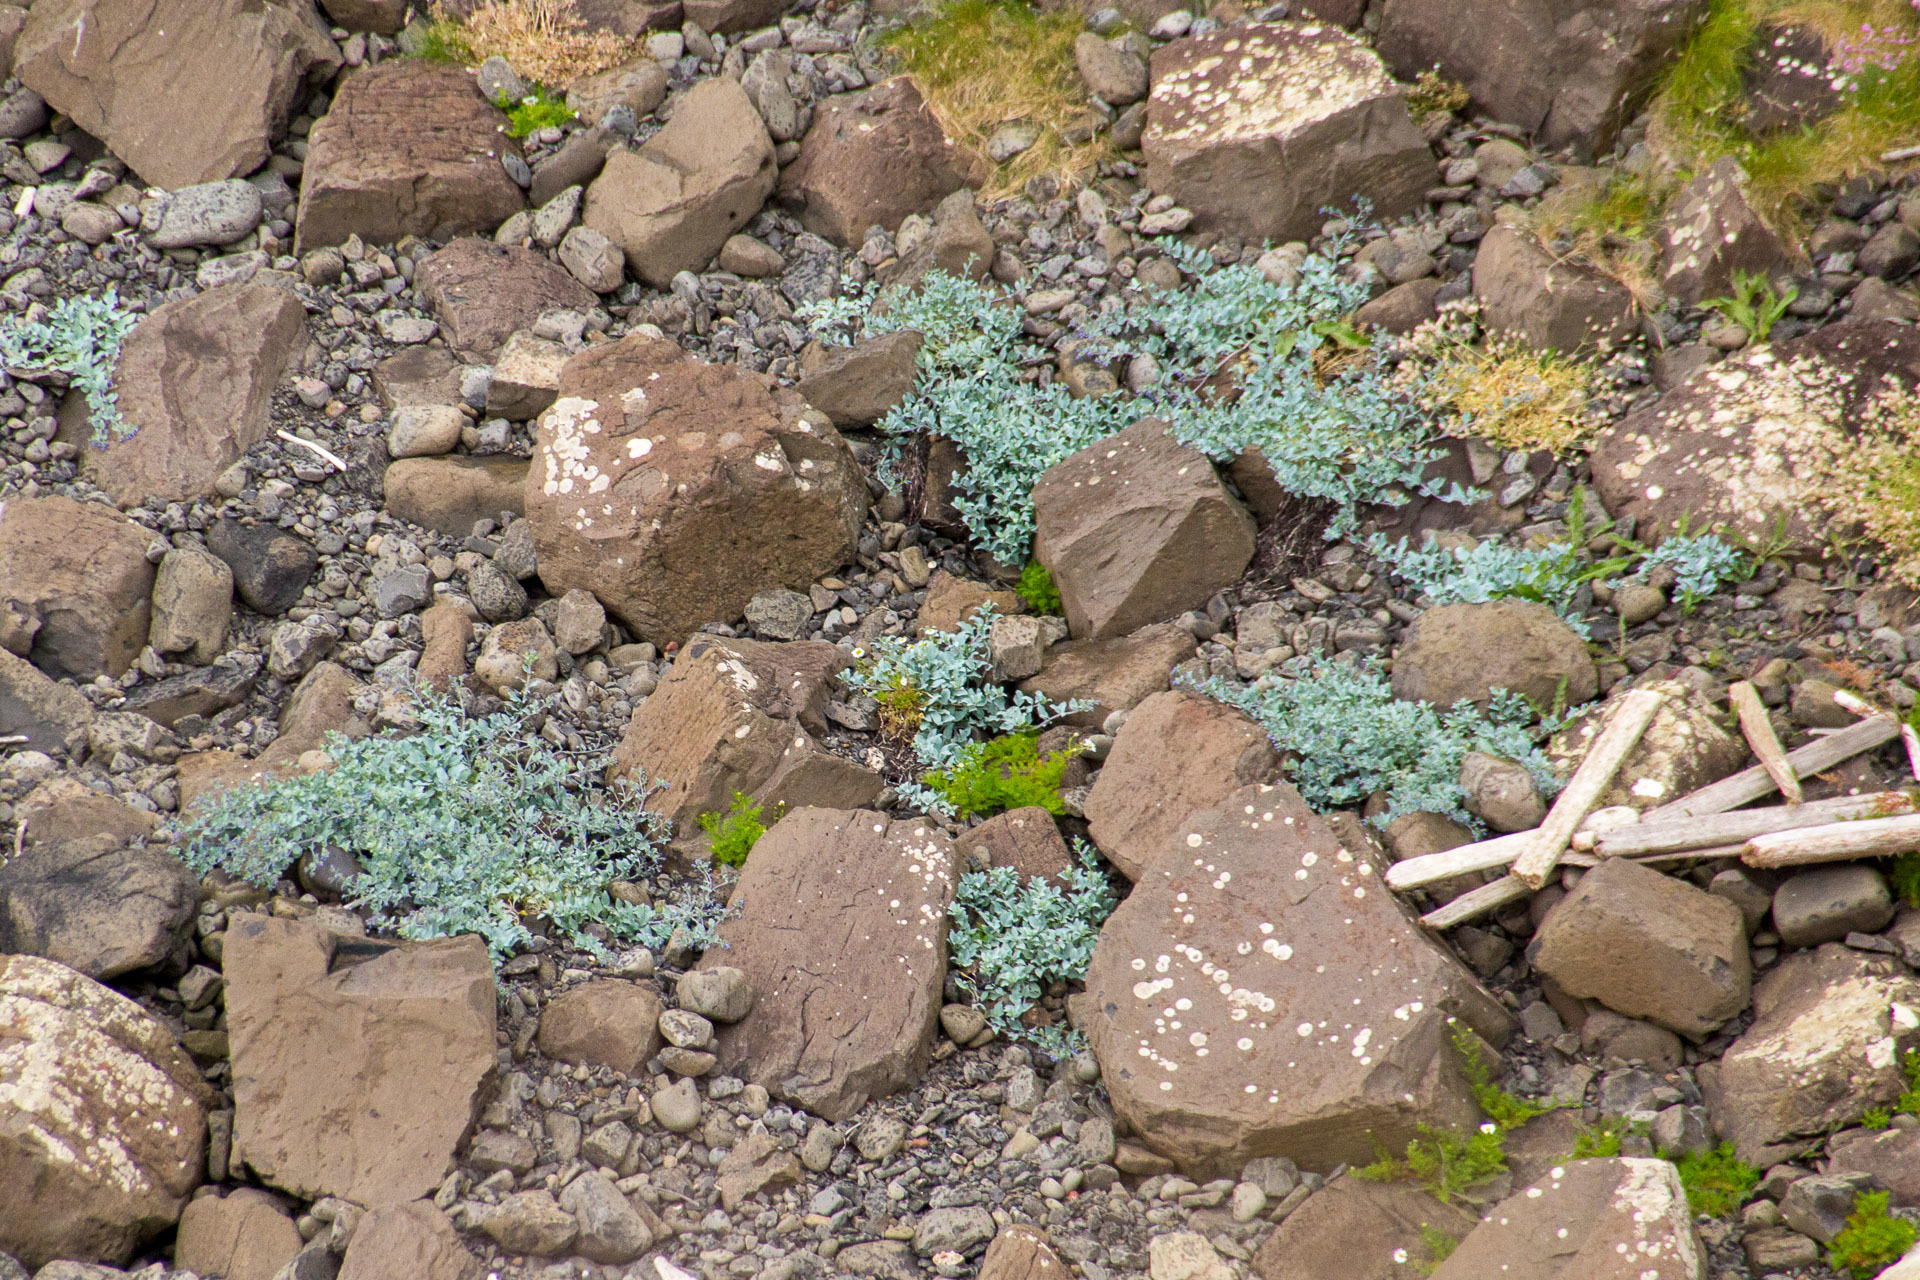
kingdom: Plantae
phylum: Tracheophyta
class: Magnoliopsida
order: Boraginales
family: Boraginaceae
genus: Mertensia
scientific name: Mertensia maritima
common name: Oysterplant
